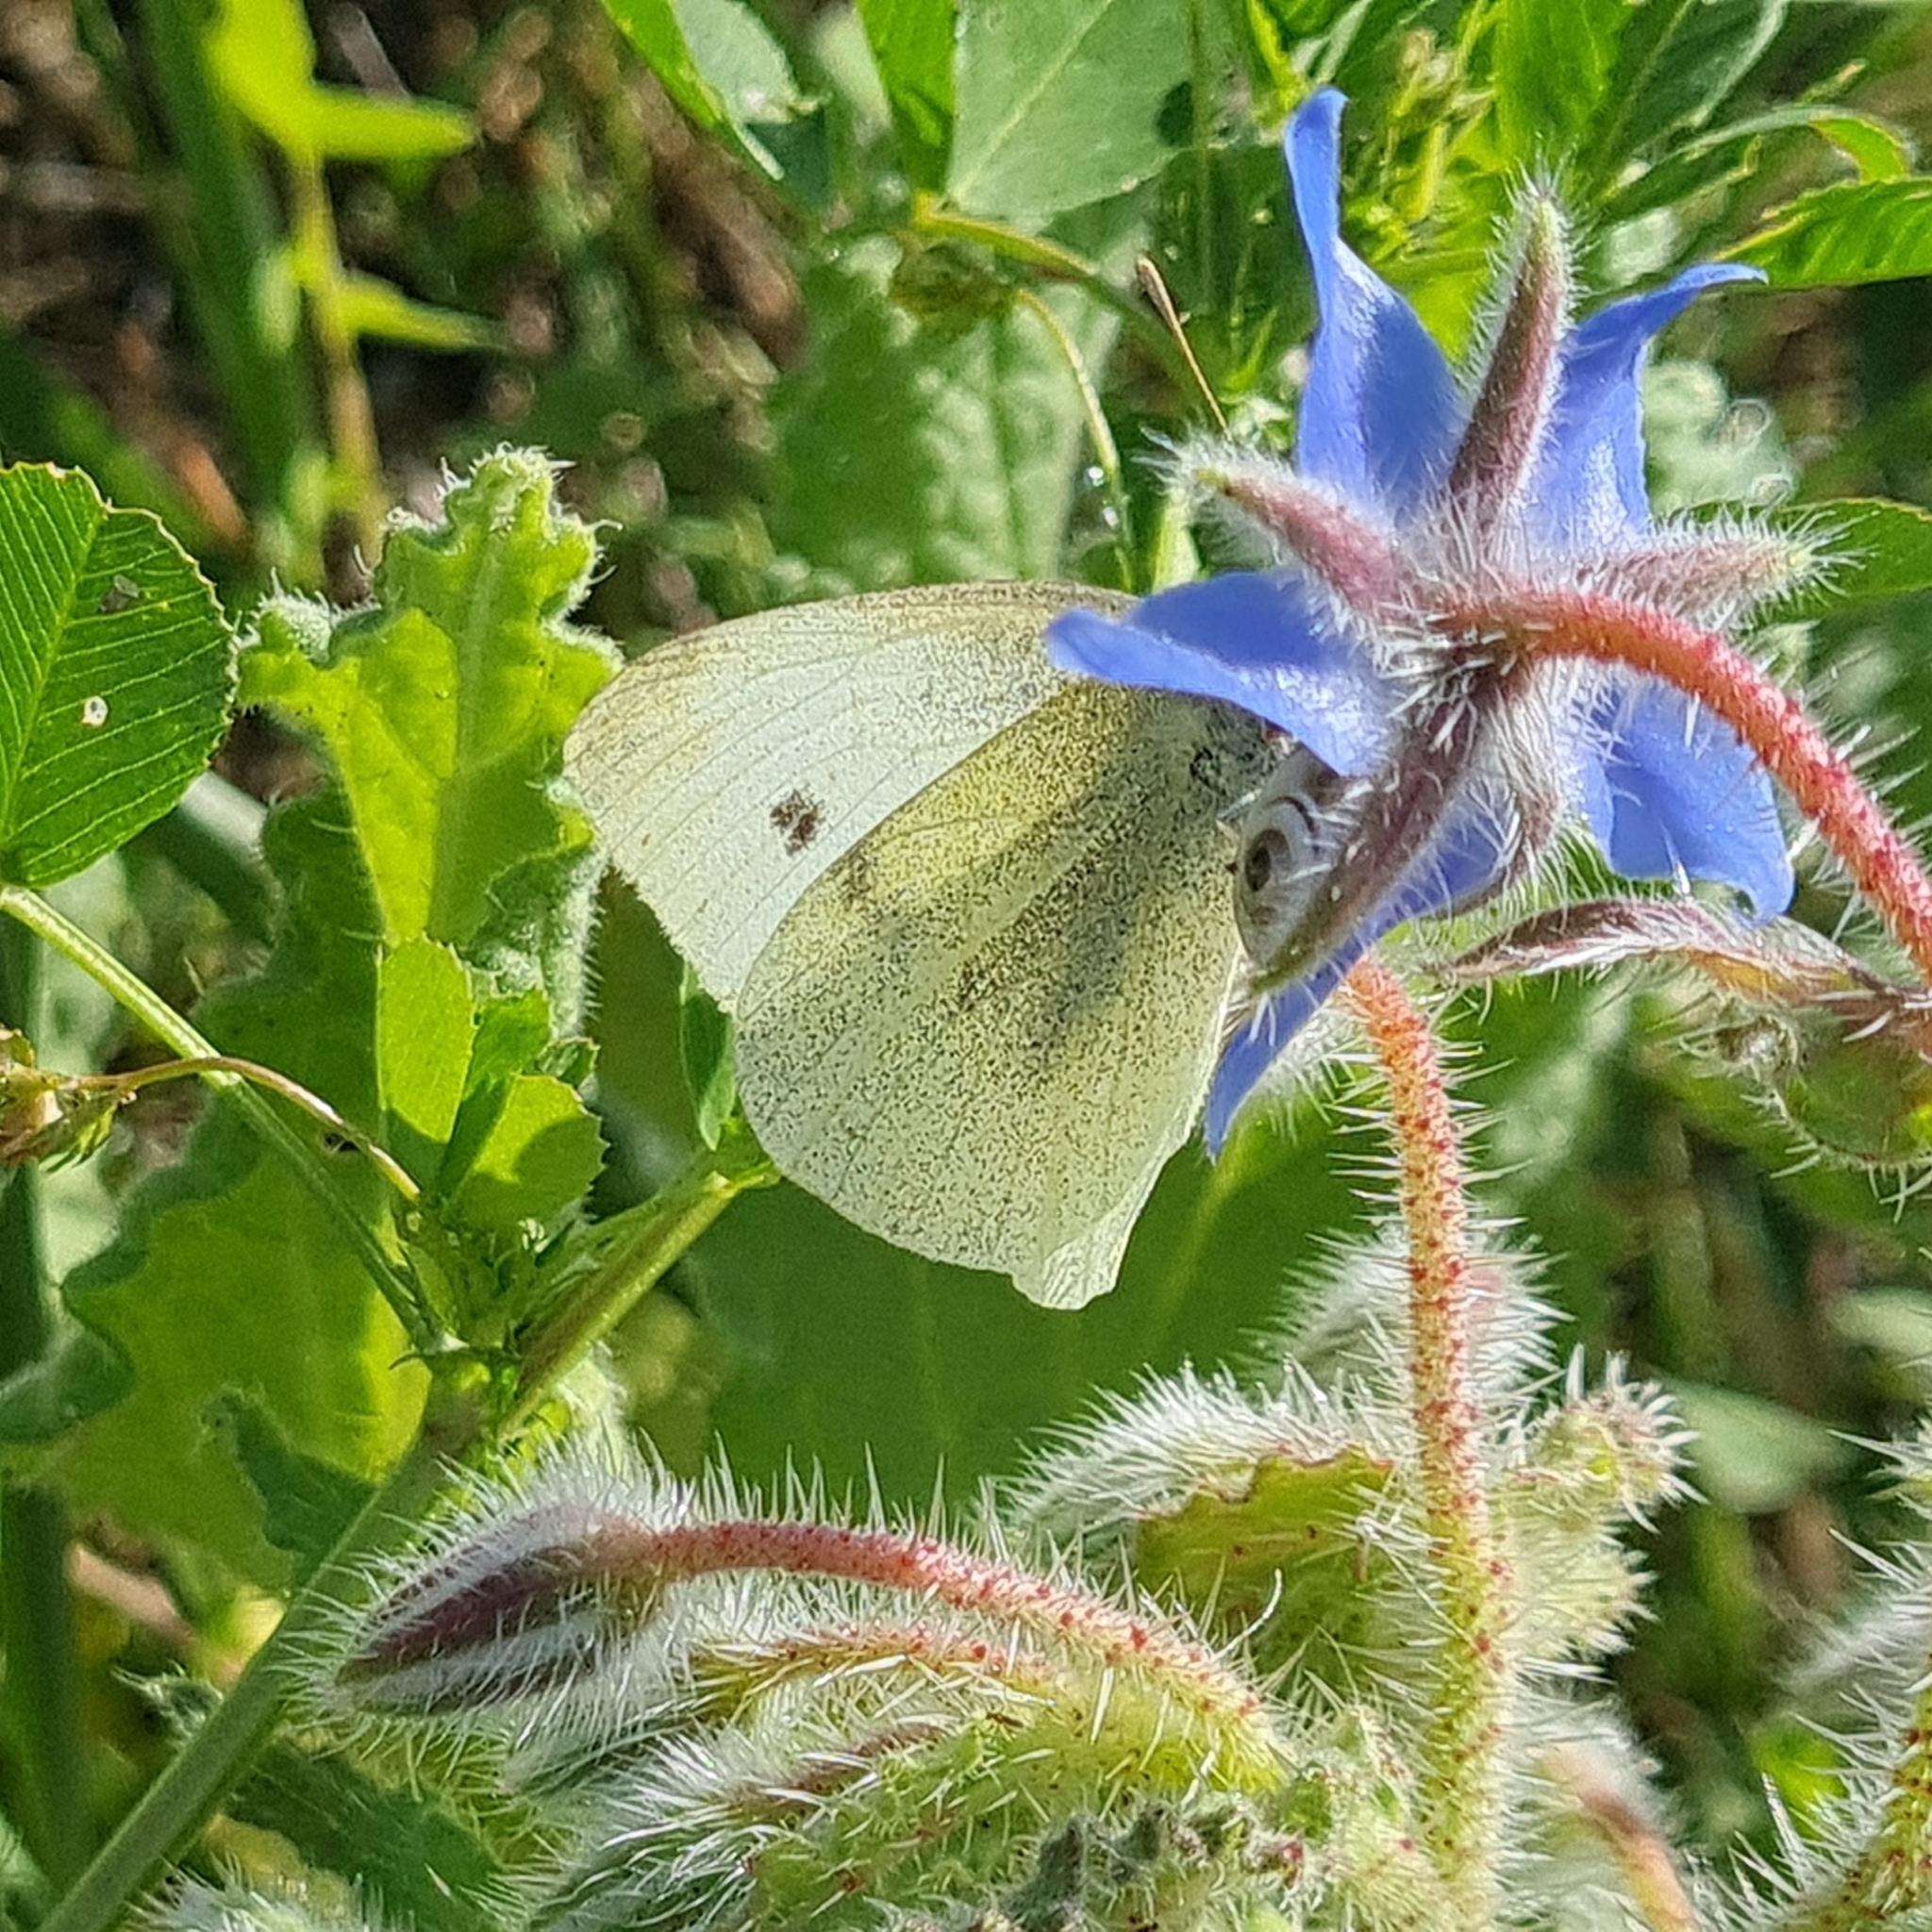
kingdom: Animalia
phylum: Arthropoda
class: Insecta
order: Lepidoptera
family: Pieridae
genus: Pieris
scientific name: Pieris rapae
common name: Small white
